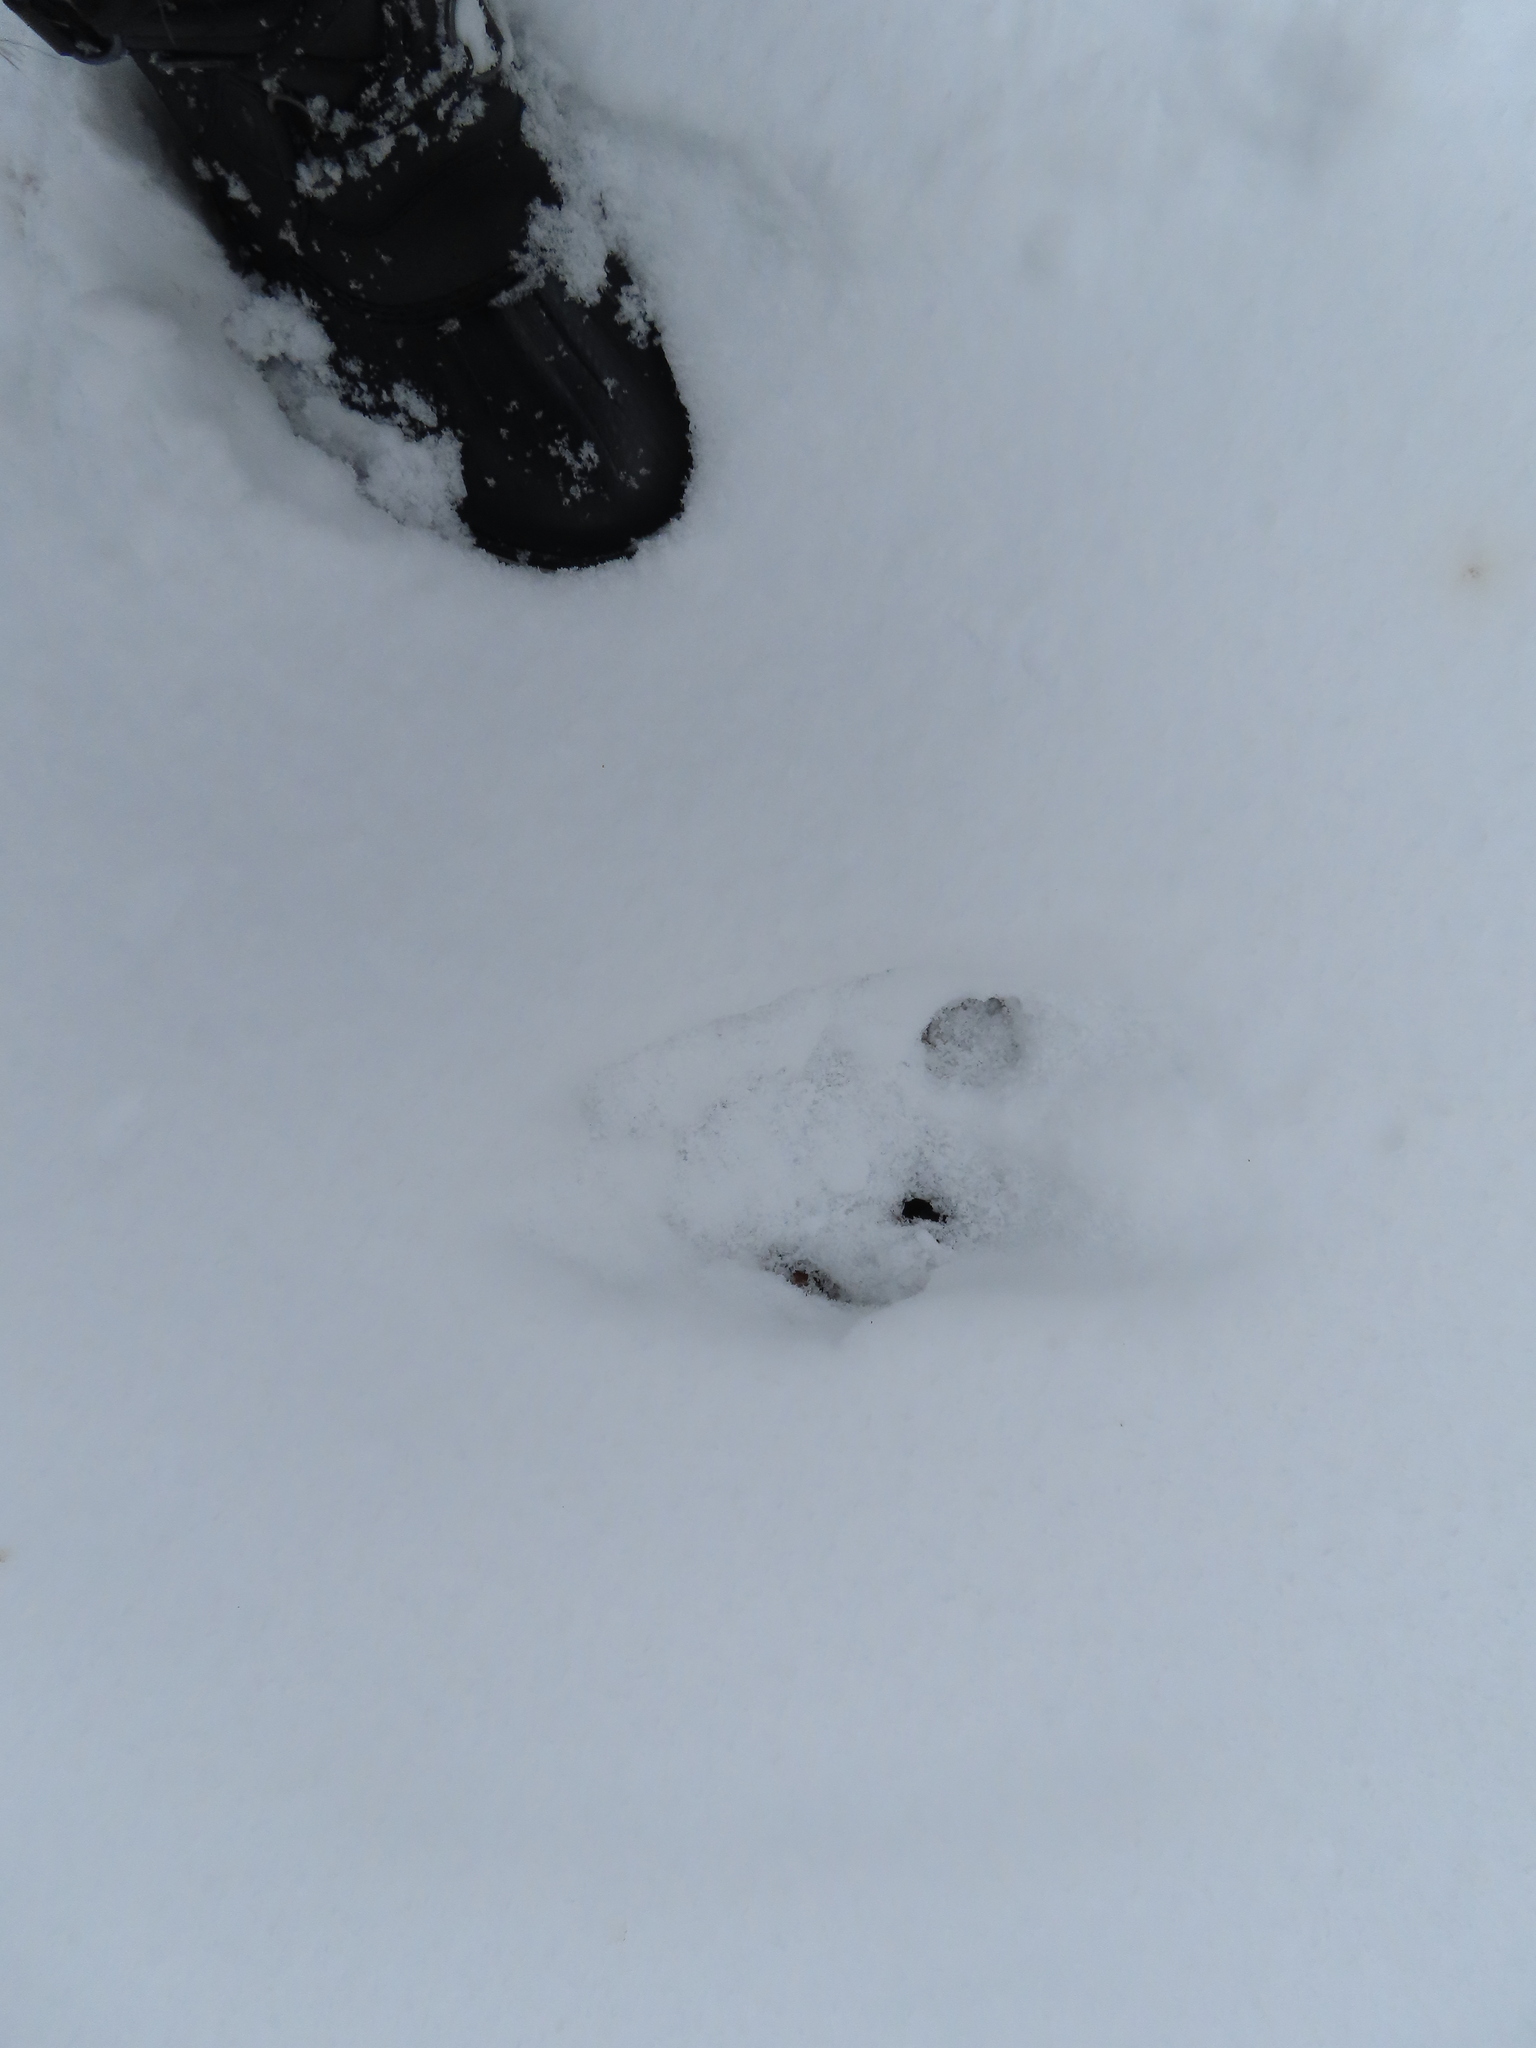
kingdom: Animalia
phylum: Chordata
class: Mammalia
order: Rodentia
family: Sciuridae
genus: Sciurus
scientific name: Sciurus carolinensis
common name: Eastern gray squirrel
